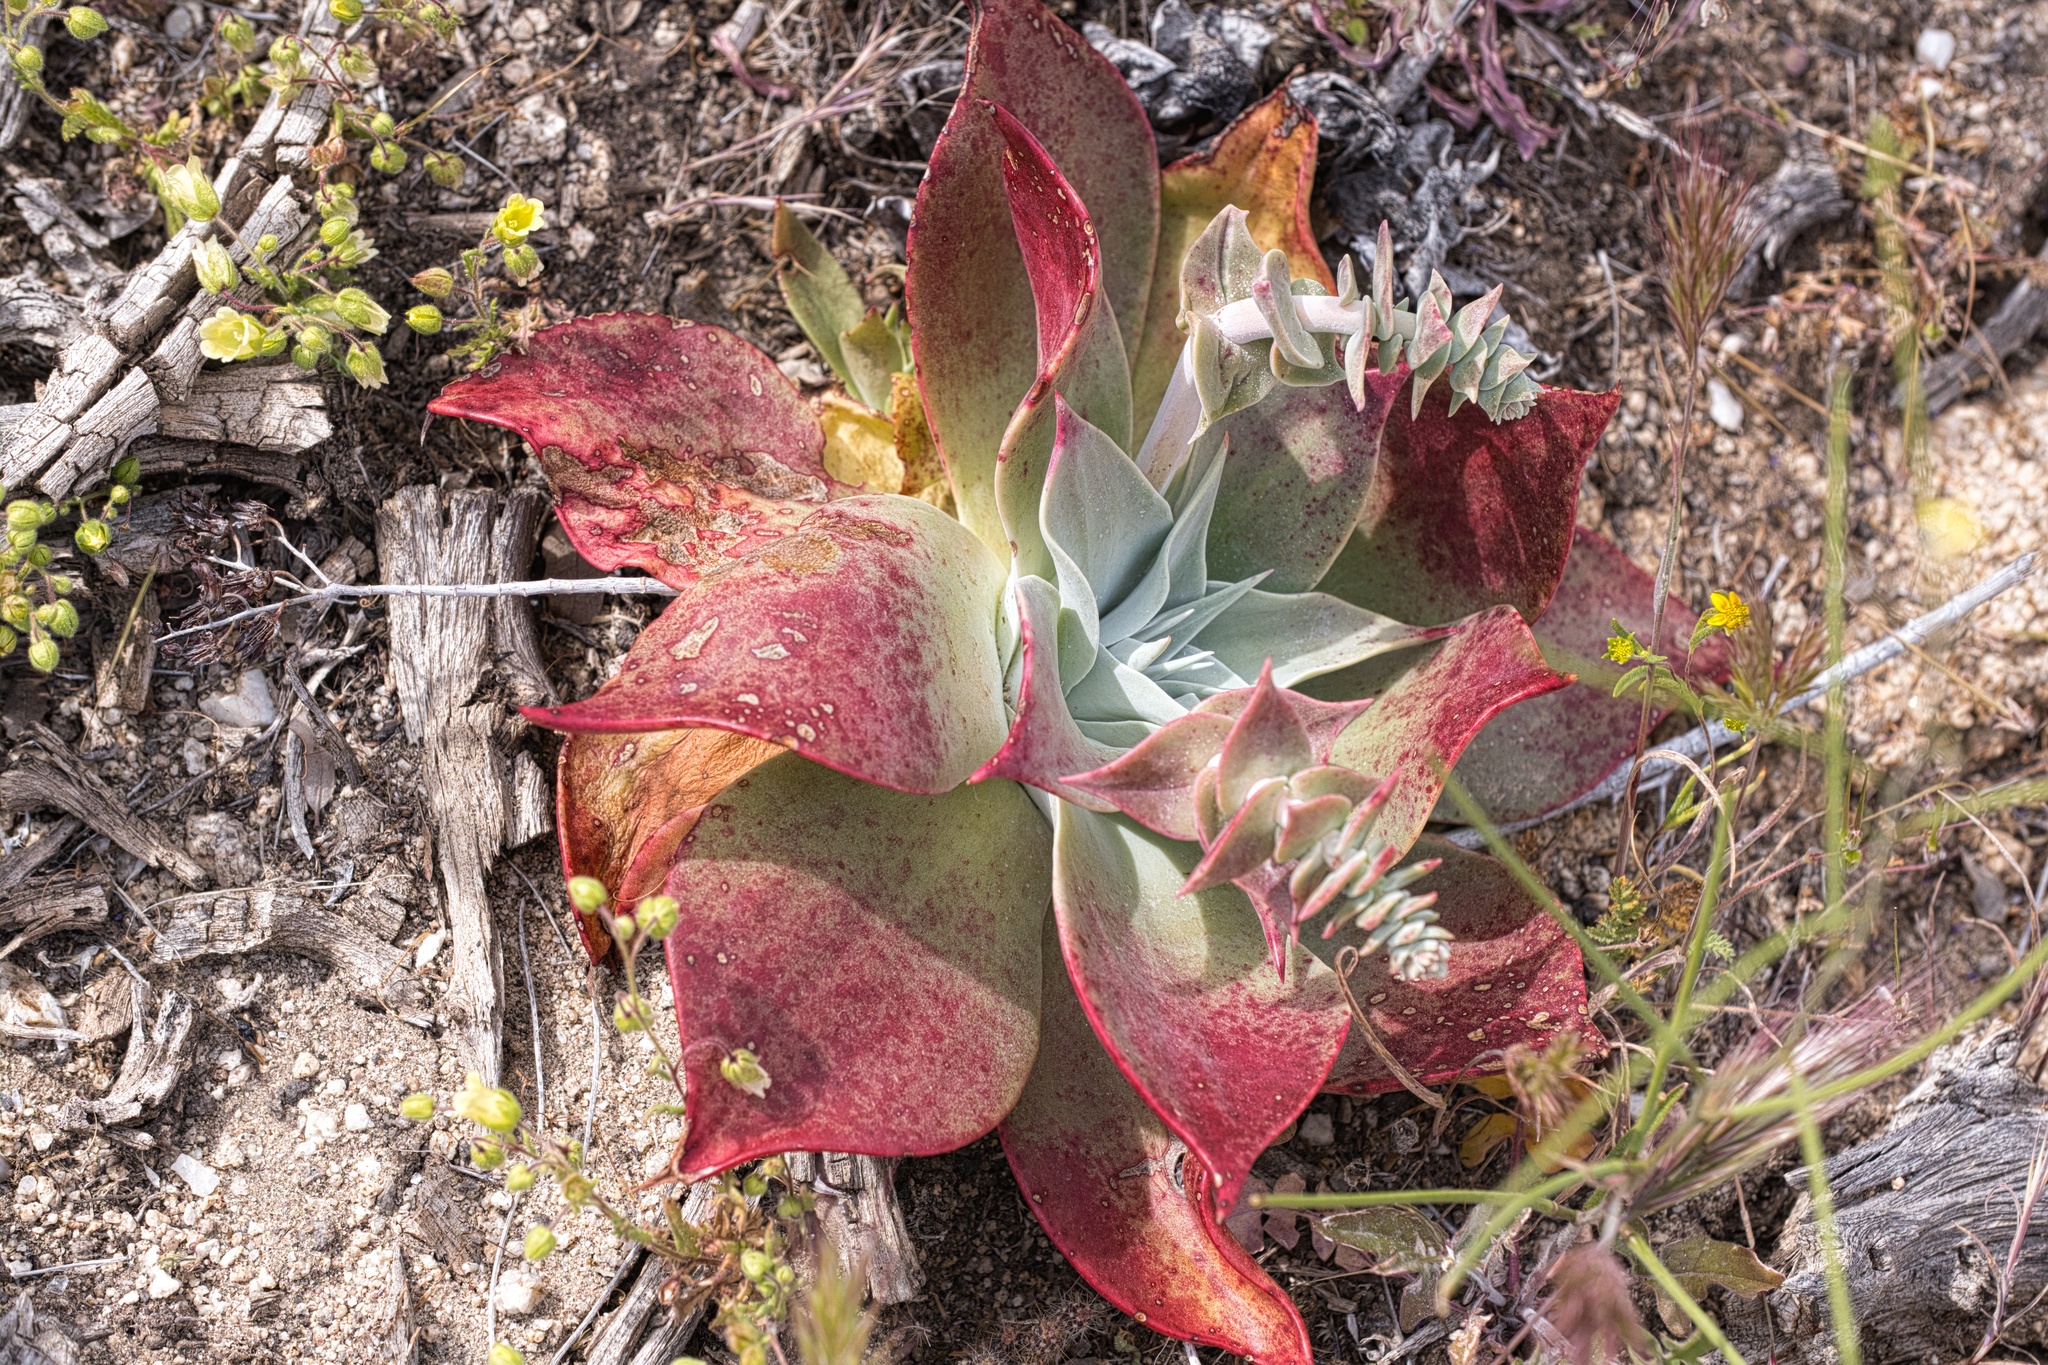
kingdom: Plantae
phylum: Tracheophyta
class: Magnoliopsida
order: Saxifragales
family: Crassulaceae
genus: Dudleya
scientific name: Dudleya arizonica
